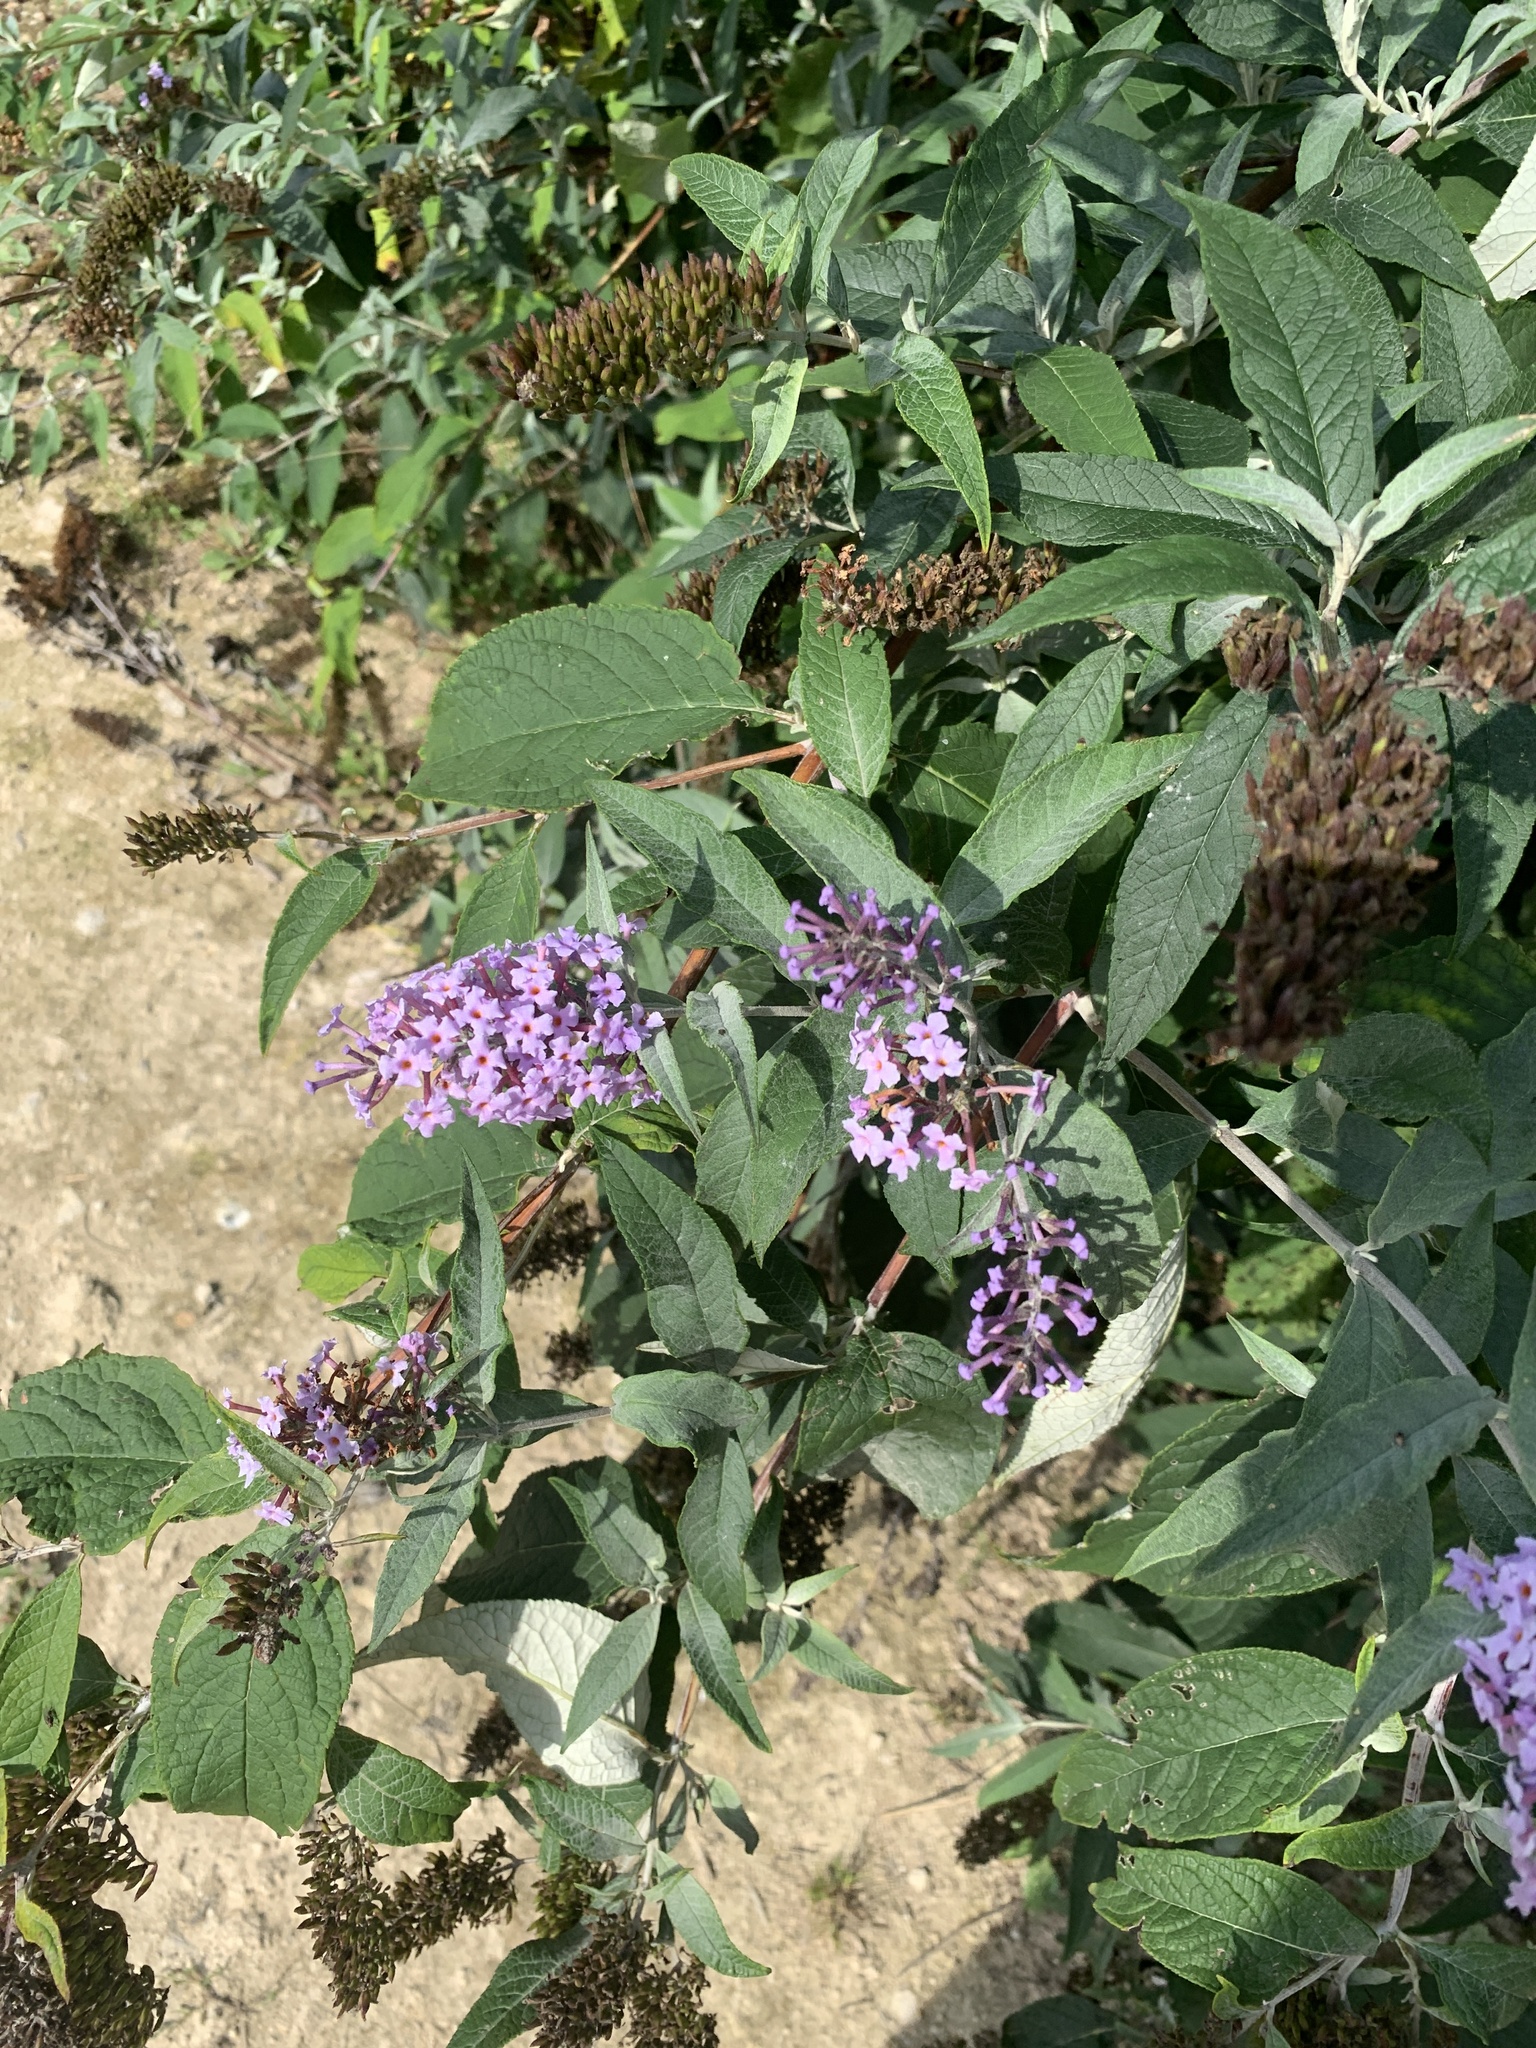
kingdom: Plantae
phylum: Tracheophyta
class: Magnoliopsida
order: Lamiales
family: Scrophulariaceae
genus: Buddleja
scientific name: Buddleja davidii
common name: Butterfly-bush
